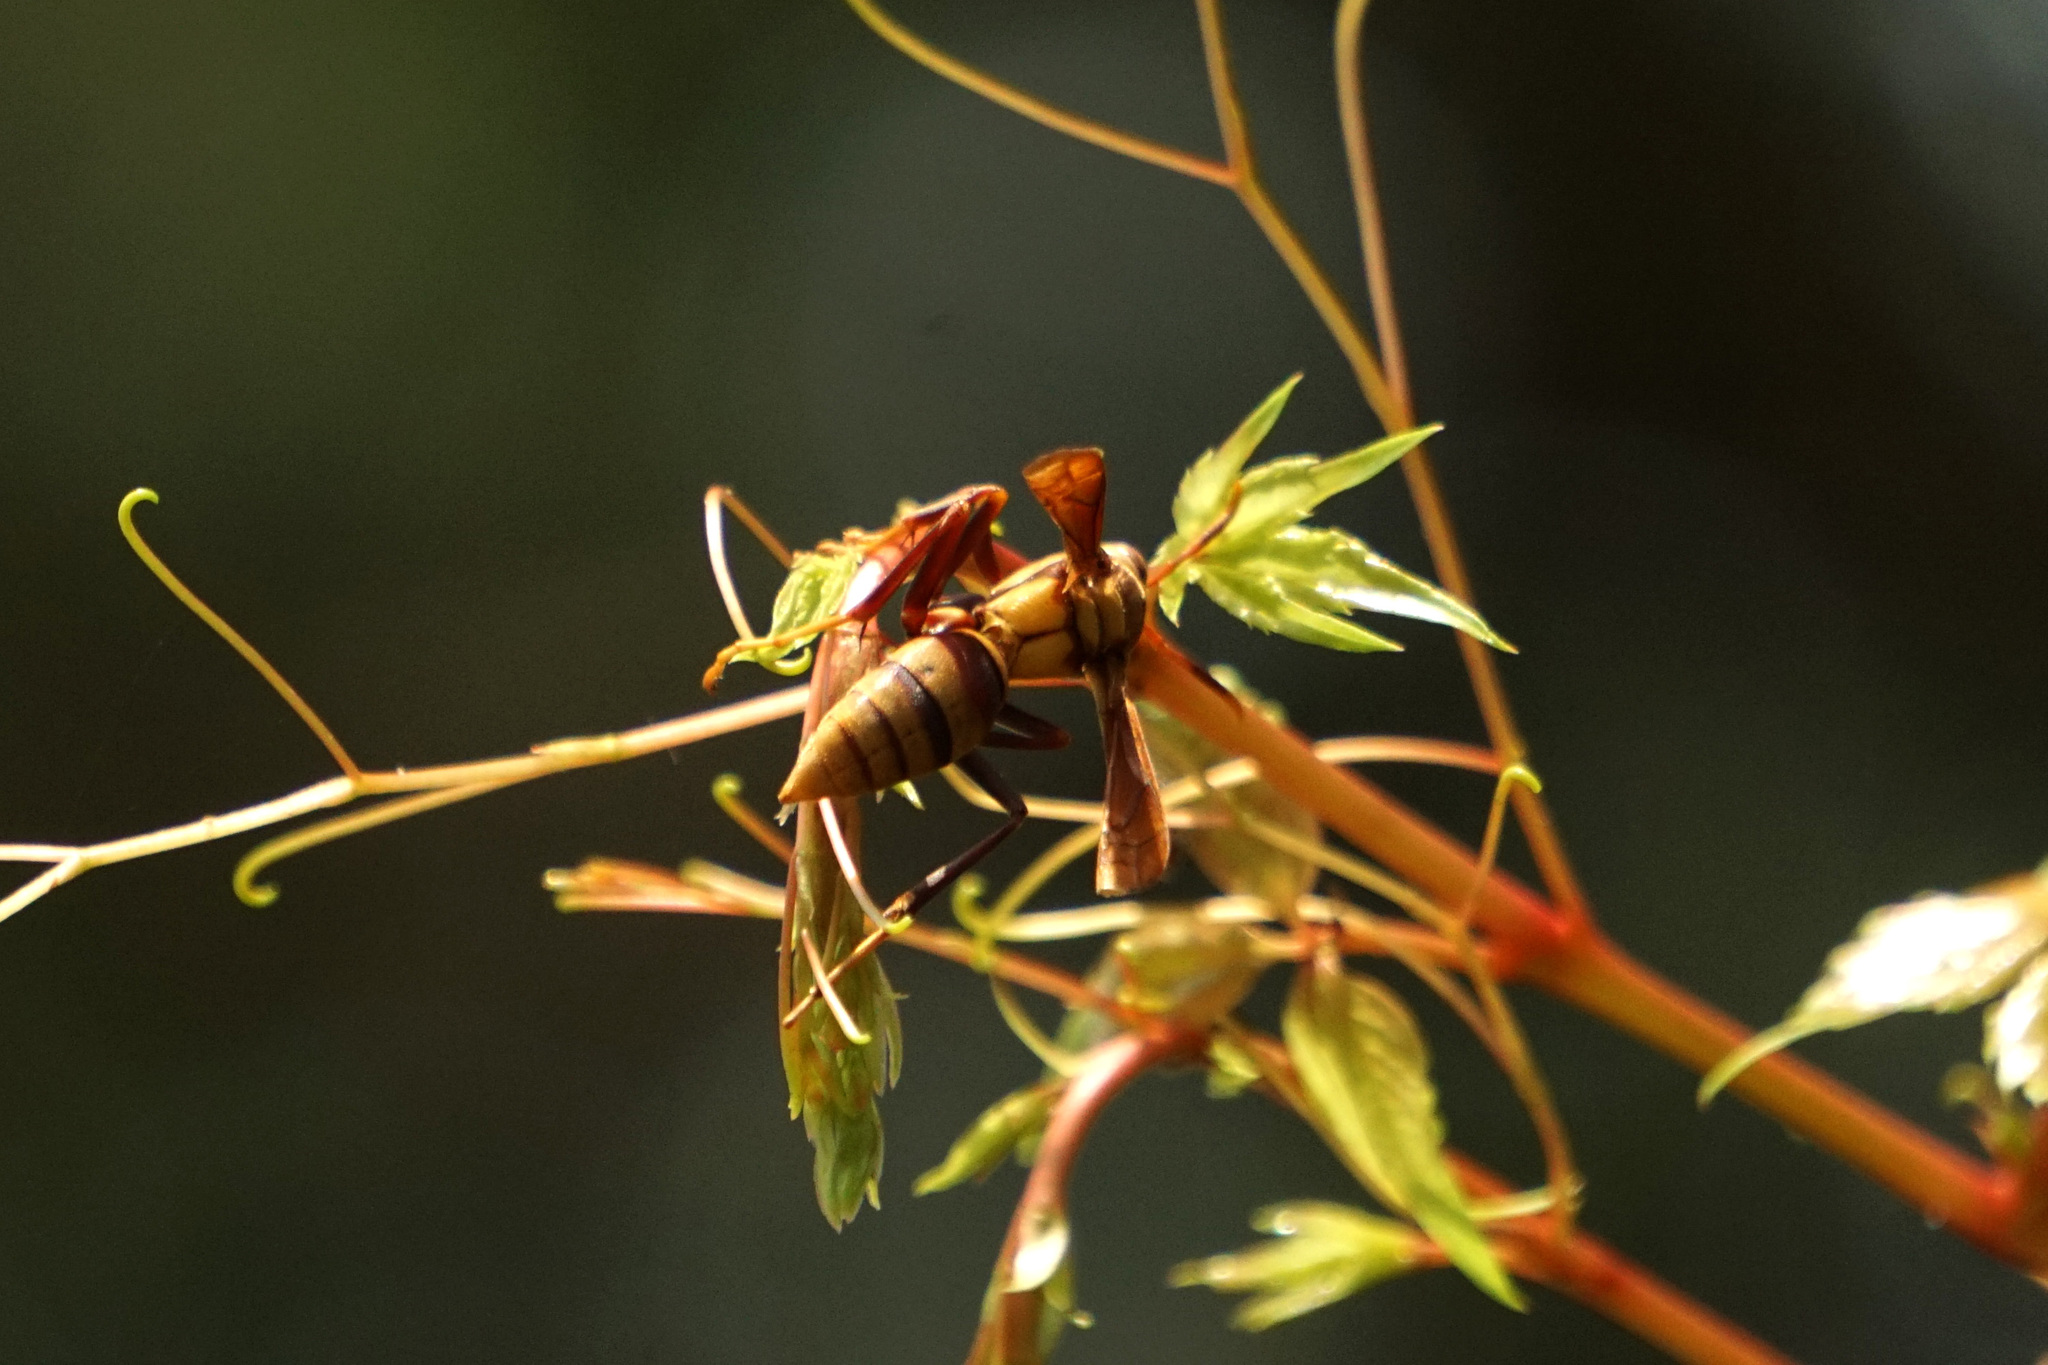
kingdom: Animalia
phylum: Arthropoda
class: Insecta
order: Hymenoptera
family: Eumenidae
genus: Polistes
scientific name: Polistes major
